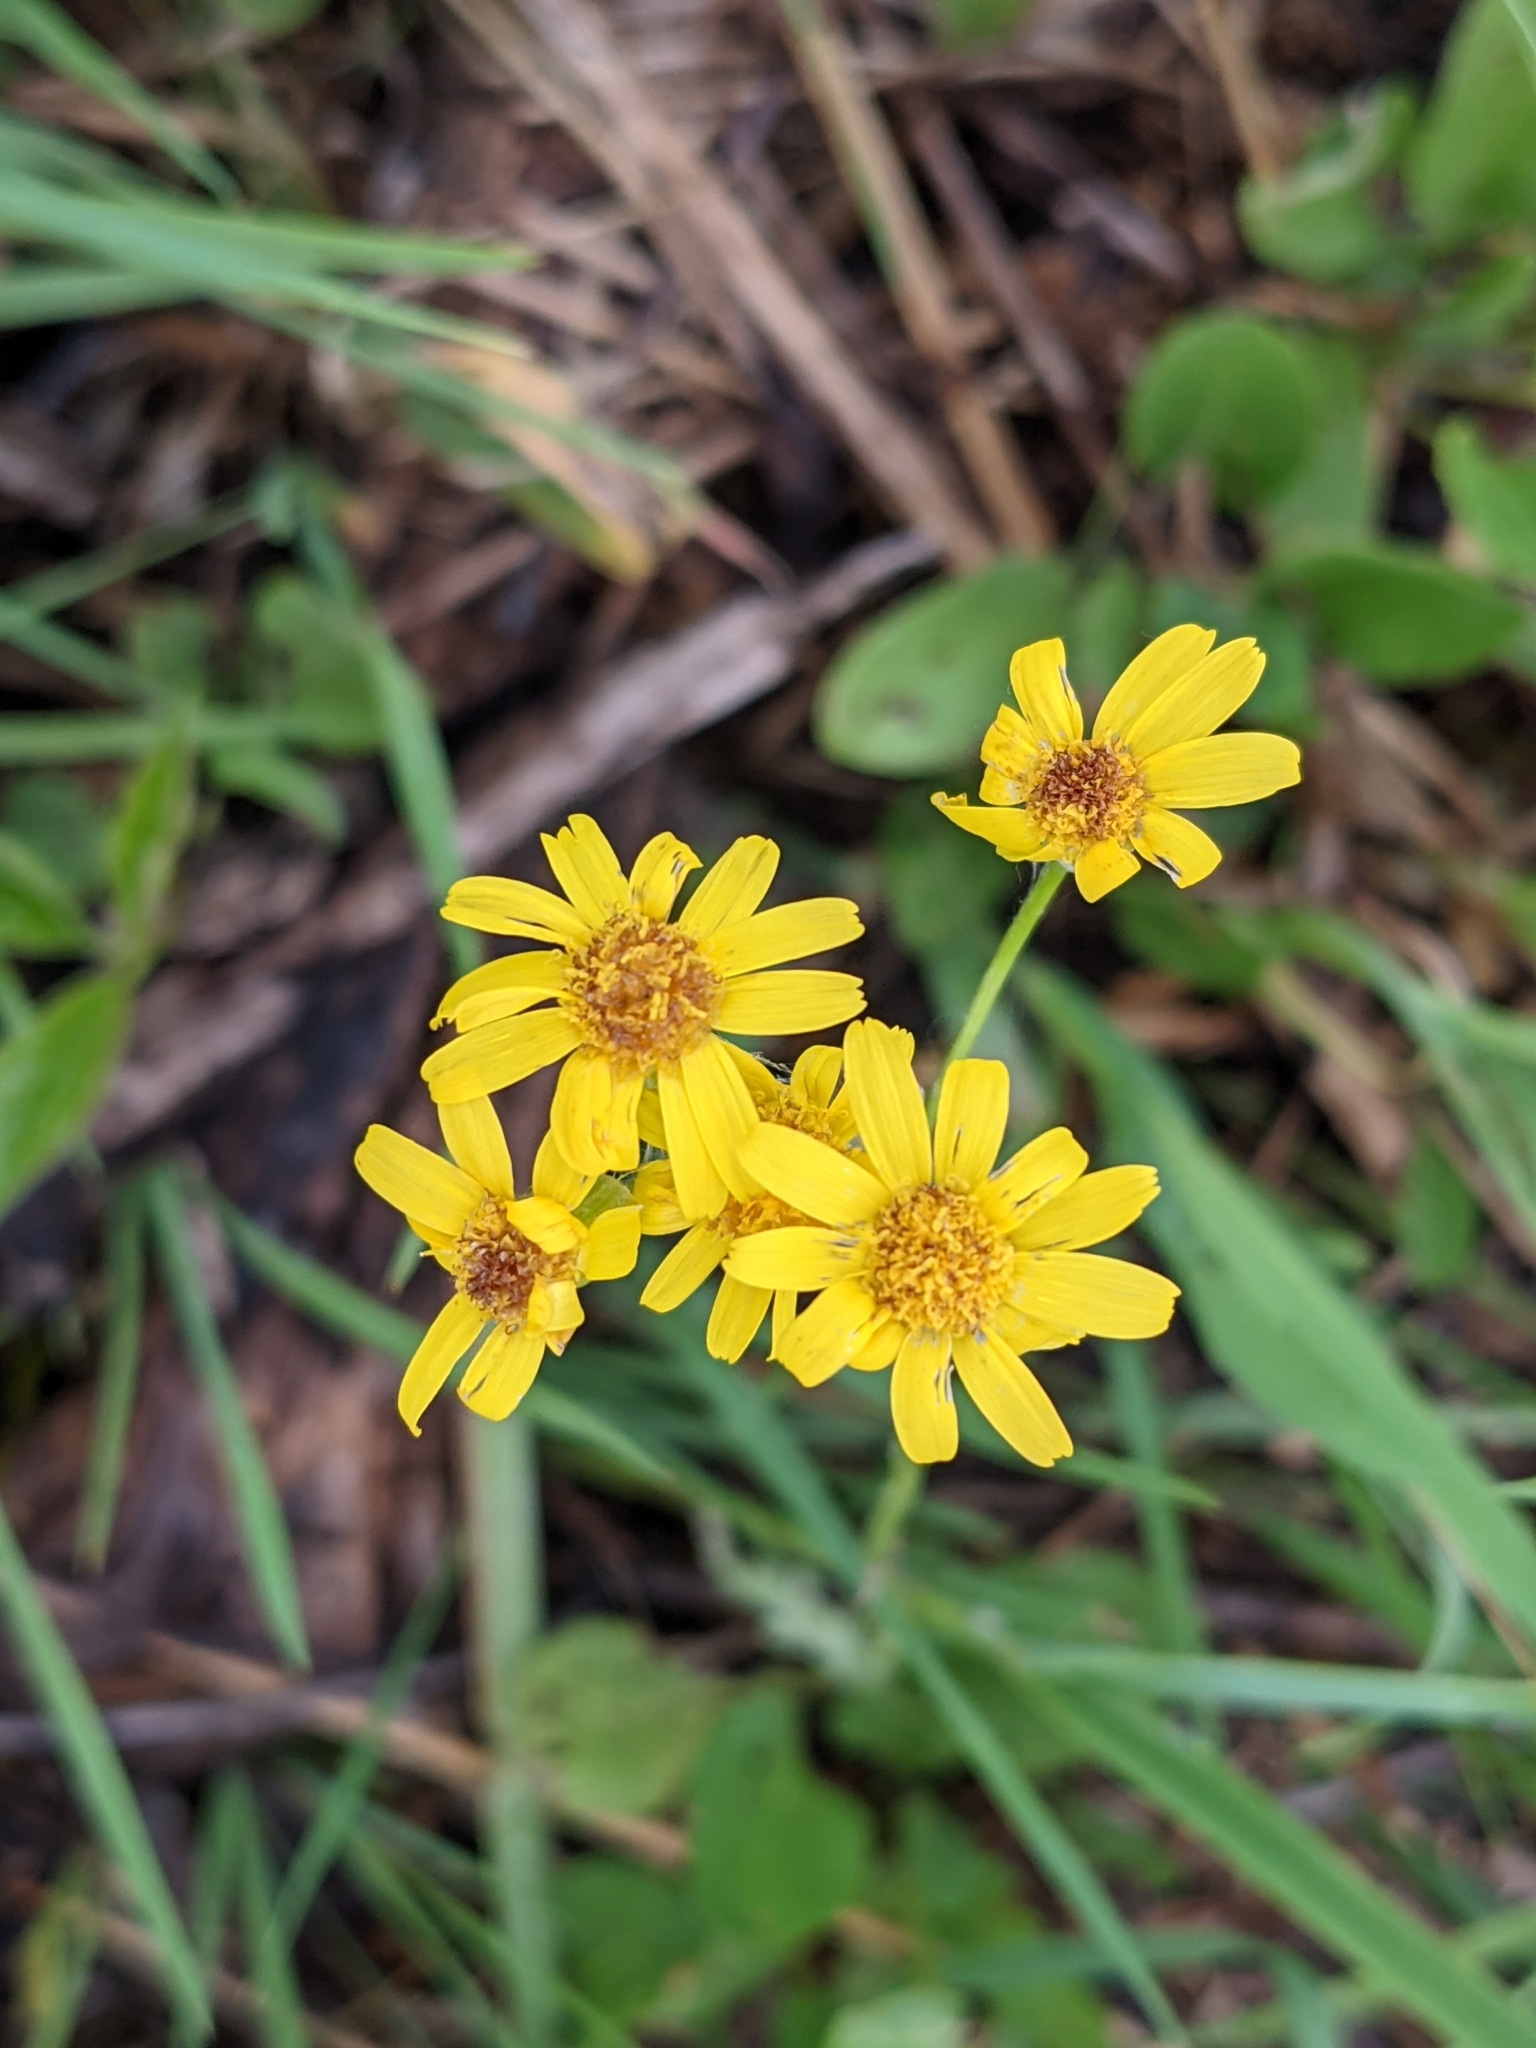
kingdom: Plantae
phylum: Tracheophyta
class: Magnoliopsida
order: Asterales
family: Asteraceae
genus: Packera
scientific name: Packera plattensis
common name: Prairie groundsel
